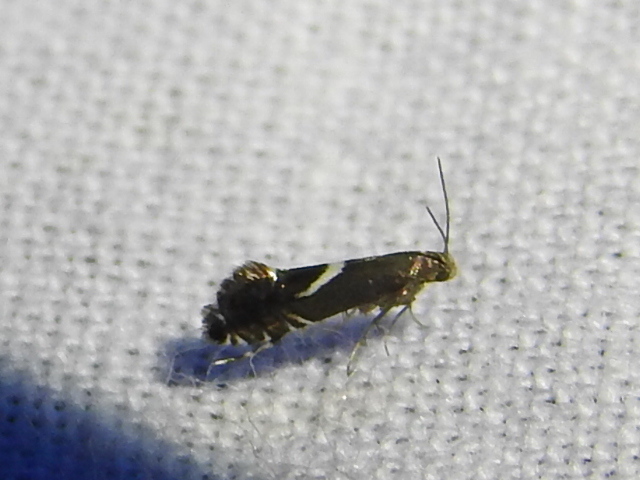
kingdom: Animalia
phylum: Arthropoda
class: Insecta
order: Lepidoptera
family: Glyphipterigidae
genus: Glyphipterix
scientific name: Glyphipterix Diploschizia impigritella
